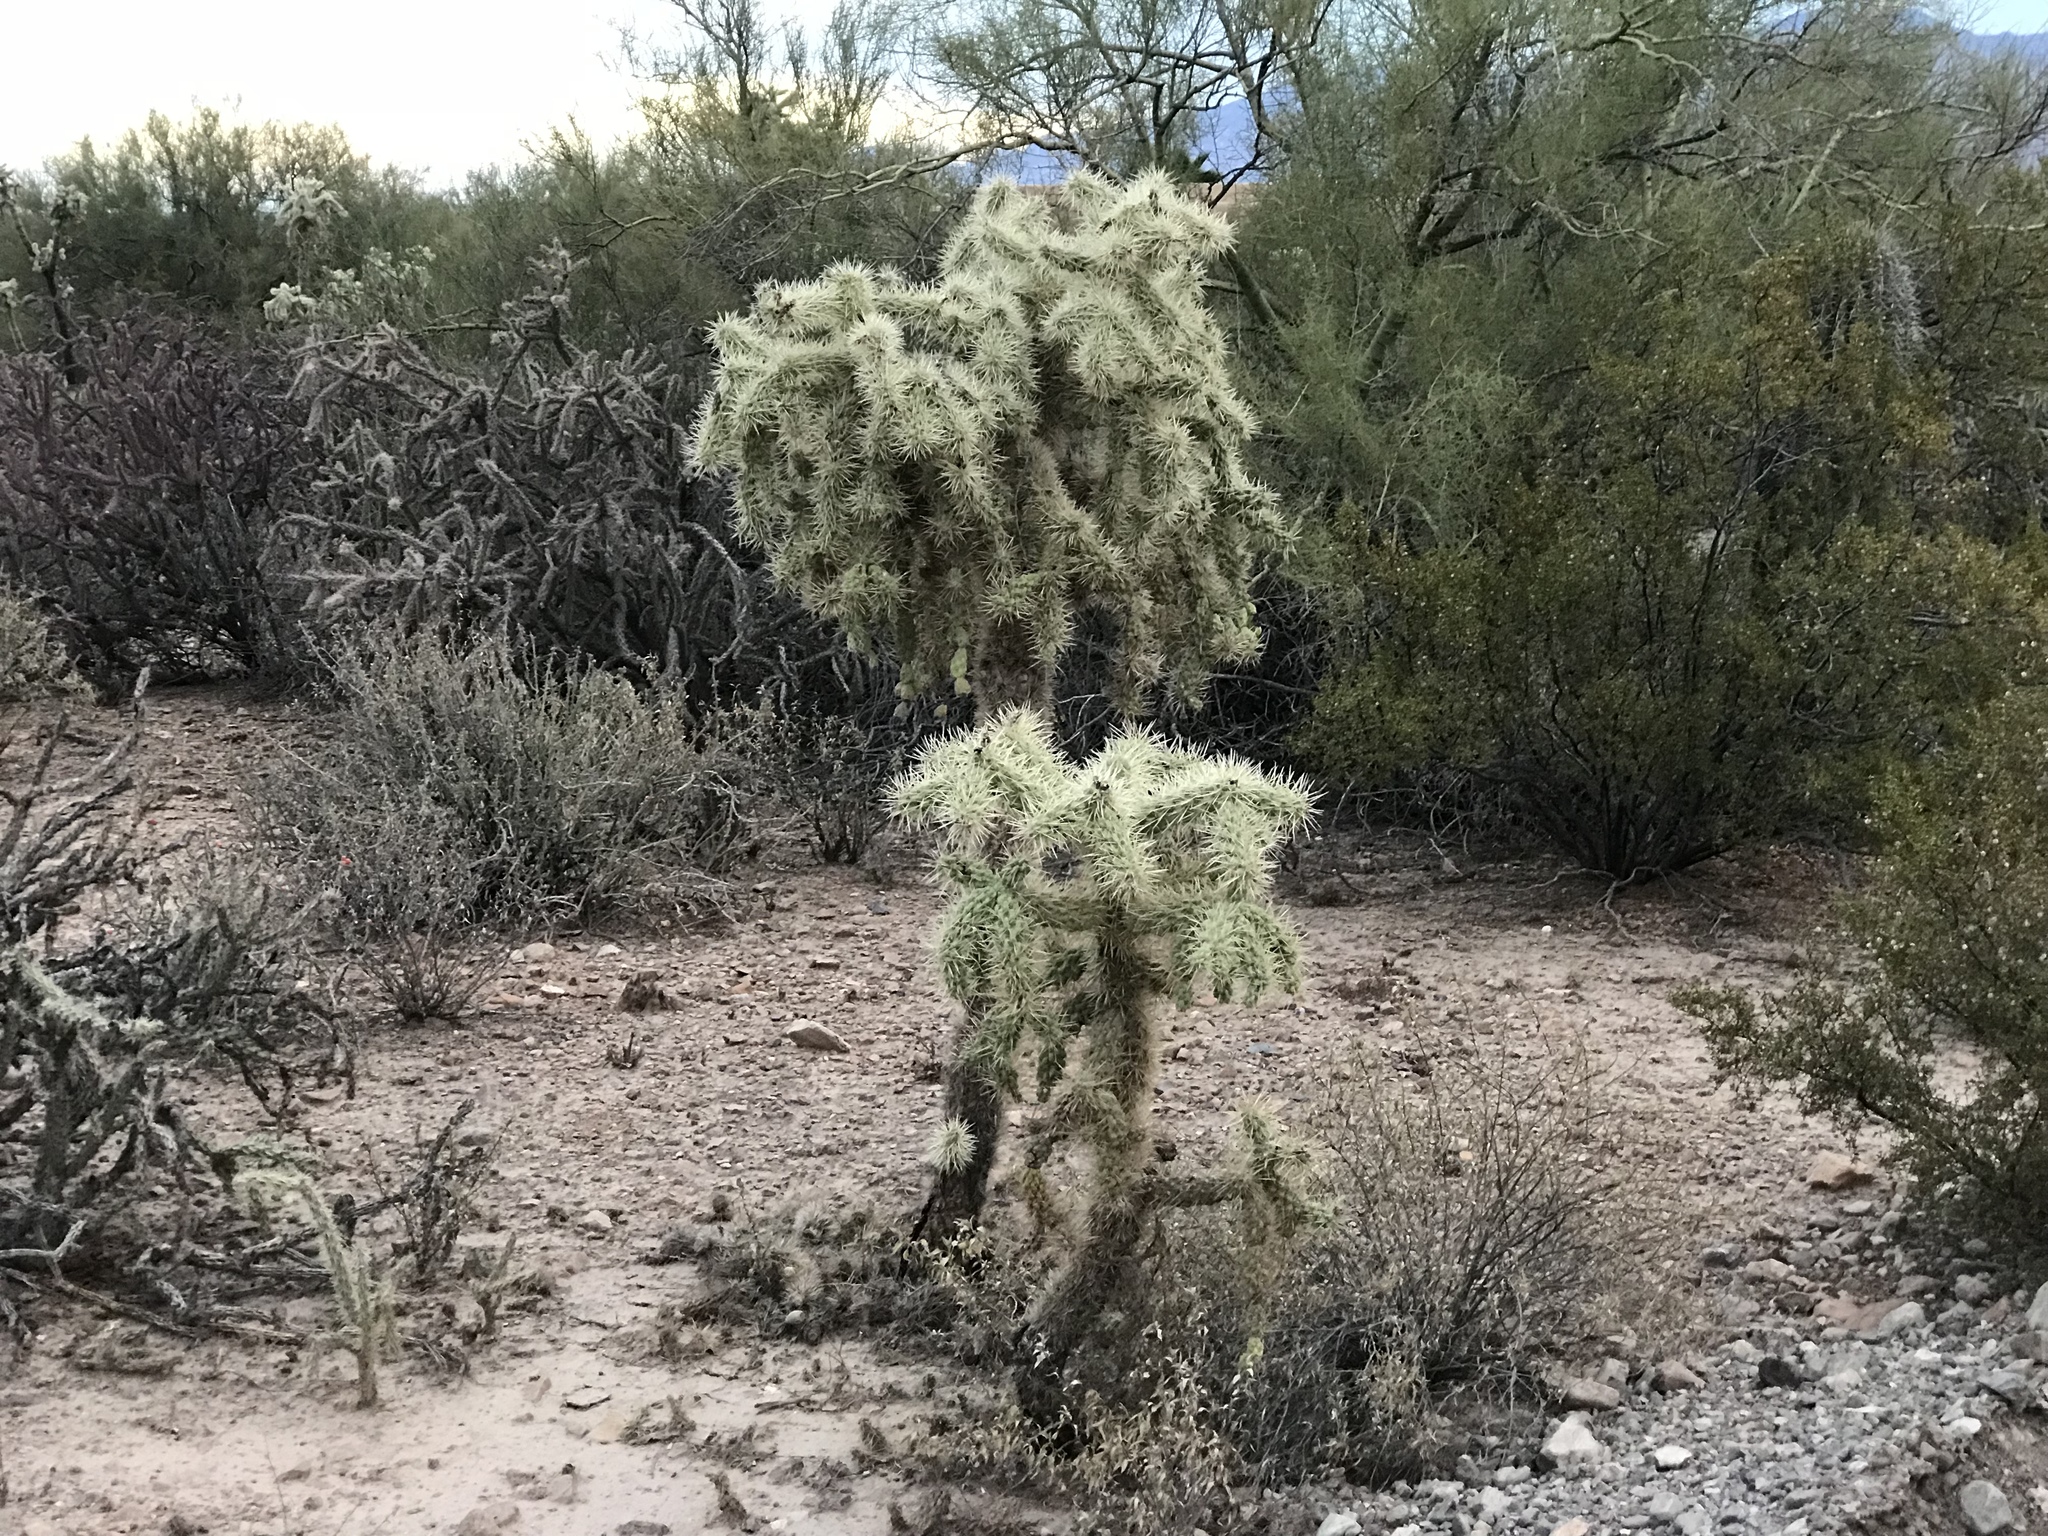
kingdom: Plantae
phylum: Tracheophyta
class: Magnoliopsida
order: Caryophyllales
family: Cactaceae
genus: Cylindropuntia
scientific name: Cylindropuntia fulgida
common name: Jumping cholla
